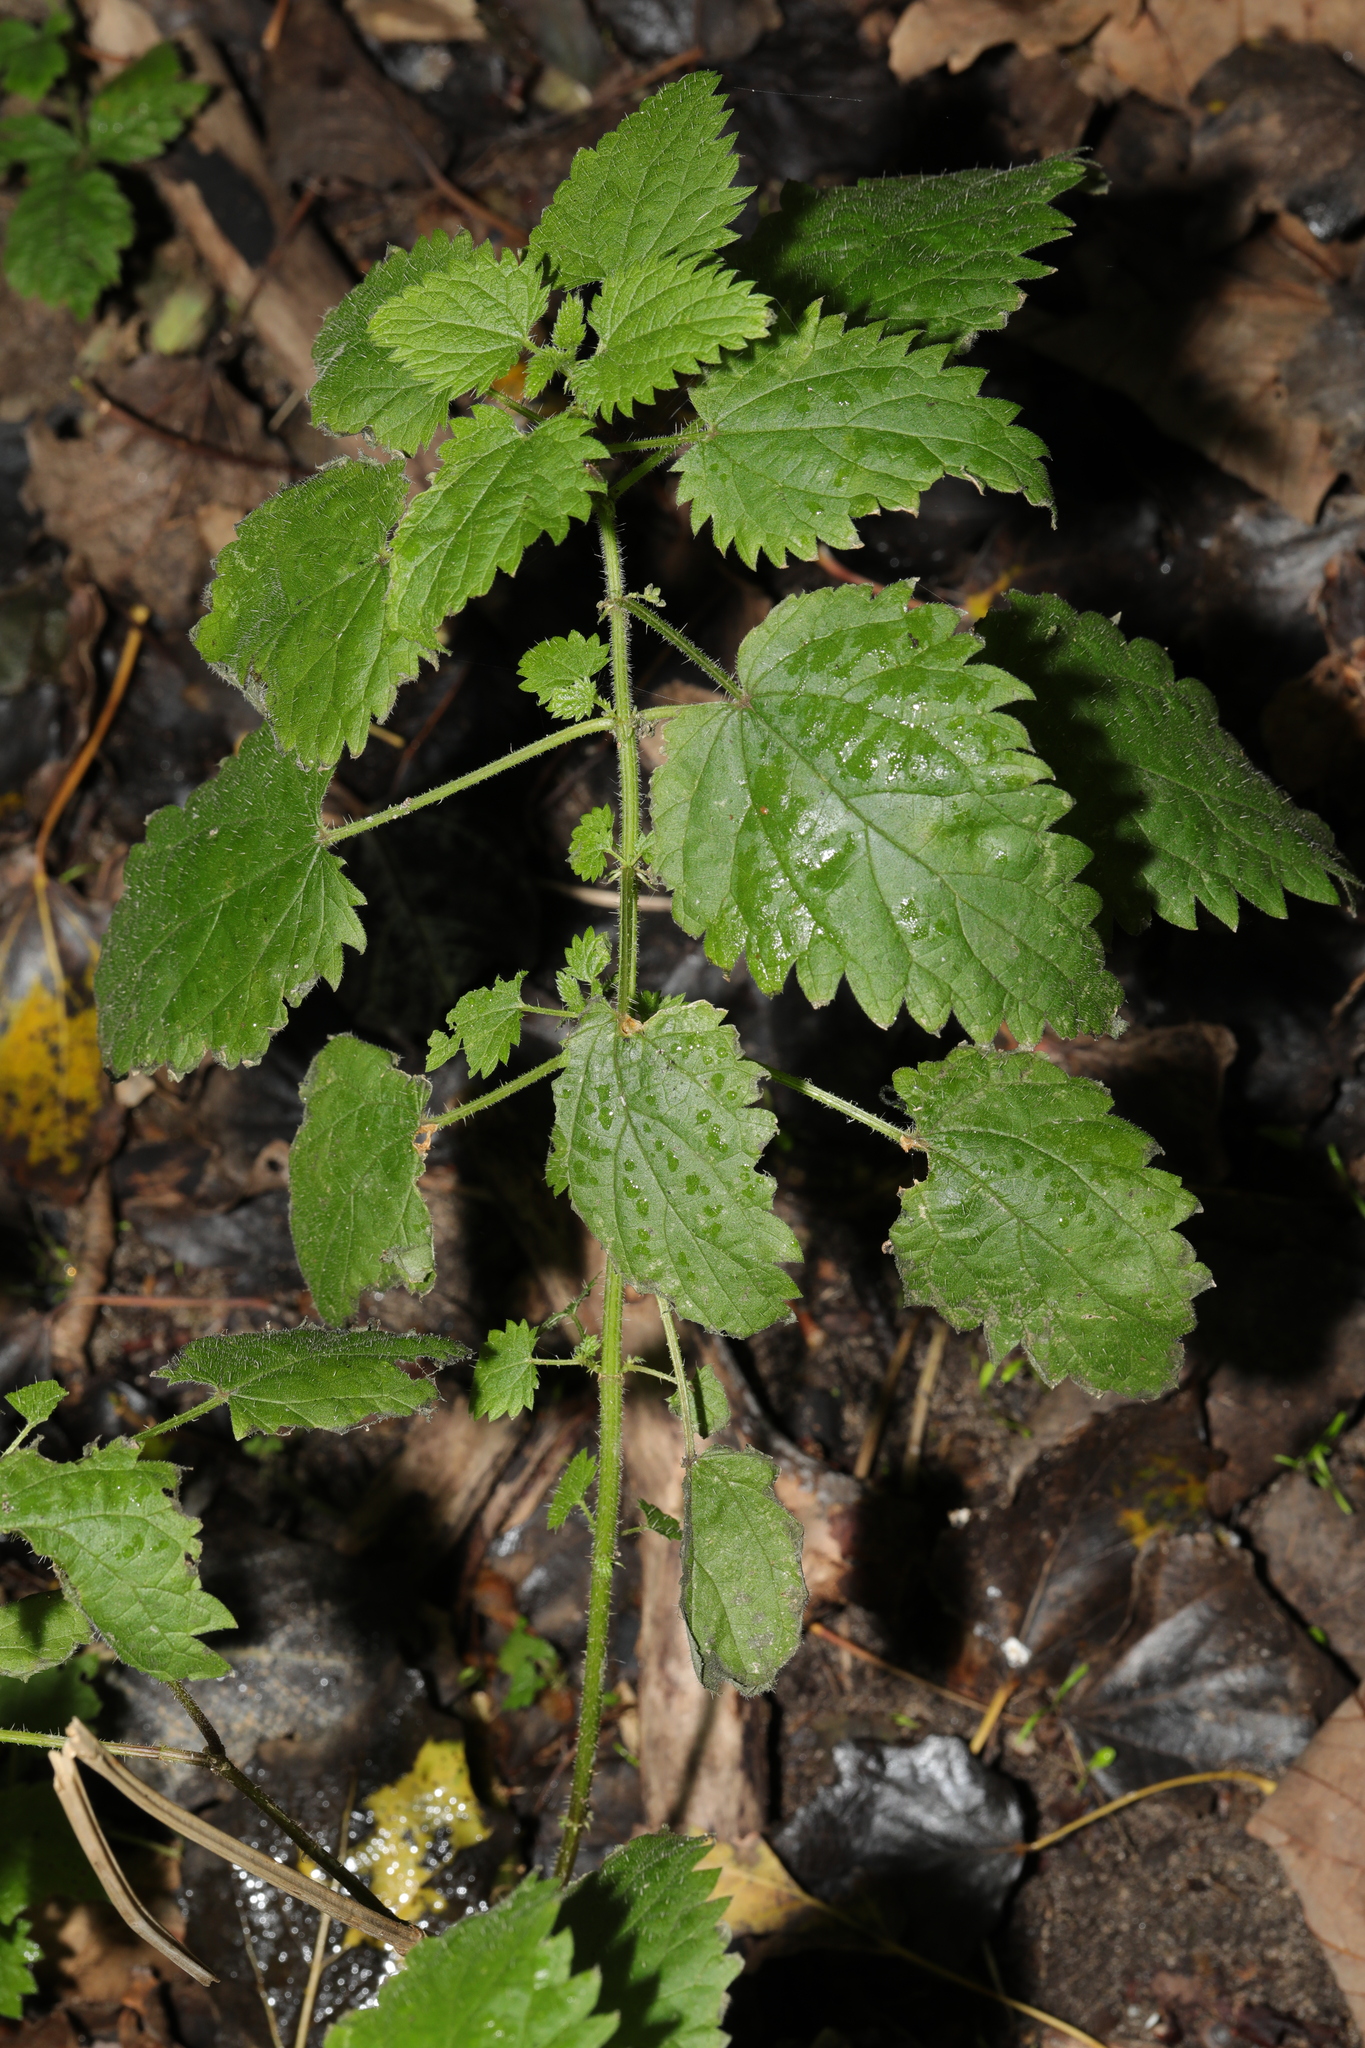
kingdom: Plantae
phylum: Tracheophyta
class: Magnoliopsida
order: Rosales
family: Urticaceae
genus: Urtica
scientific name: Urtica dioica
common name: Common nettle
